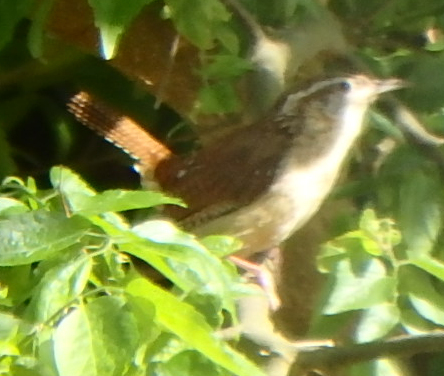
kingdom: Animalia
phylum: Chordata
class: Aves
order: Passeriformes
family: Troglodytidae
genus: Thryothorus
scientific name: Thryothorus ludovicianus
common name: Carolina wren
